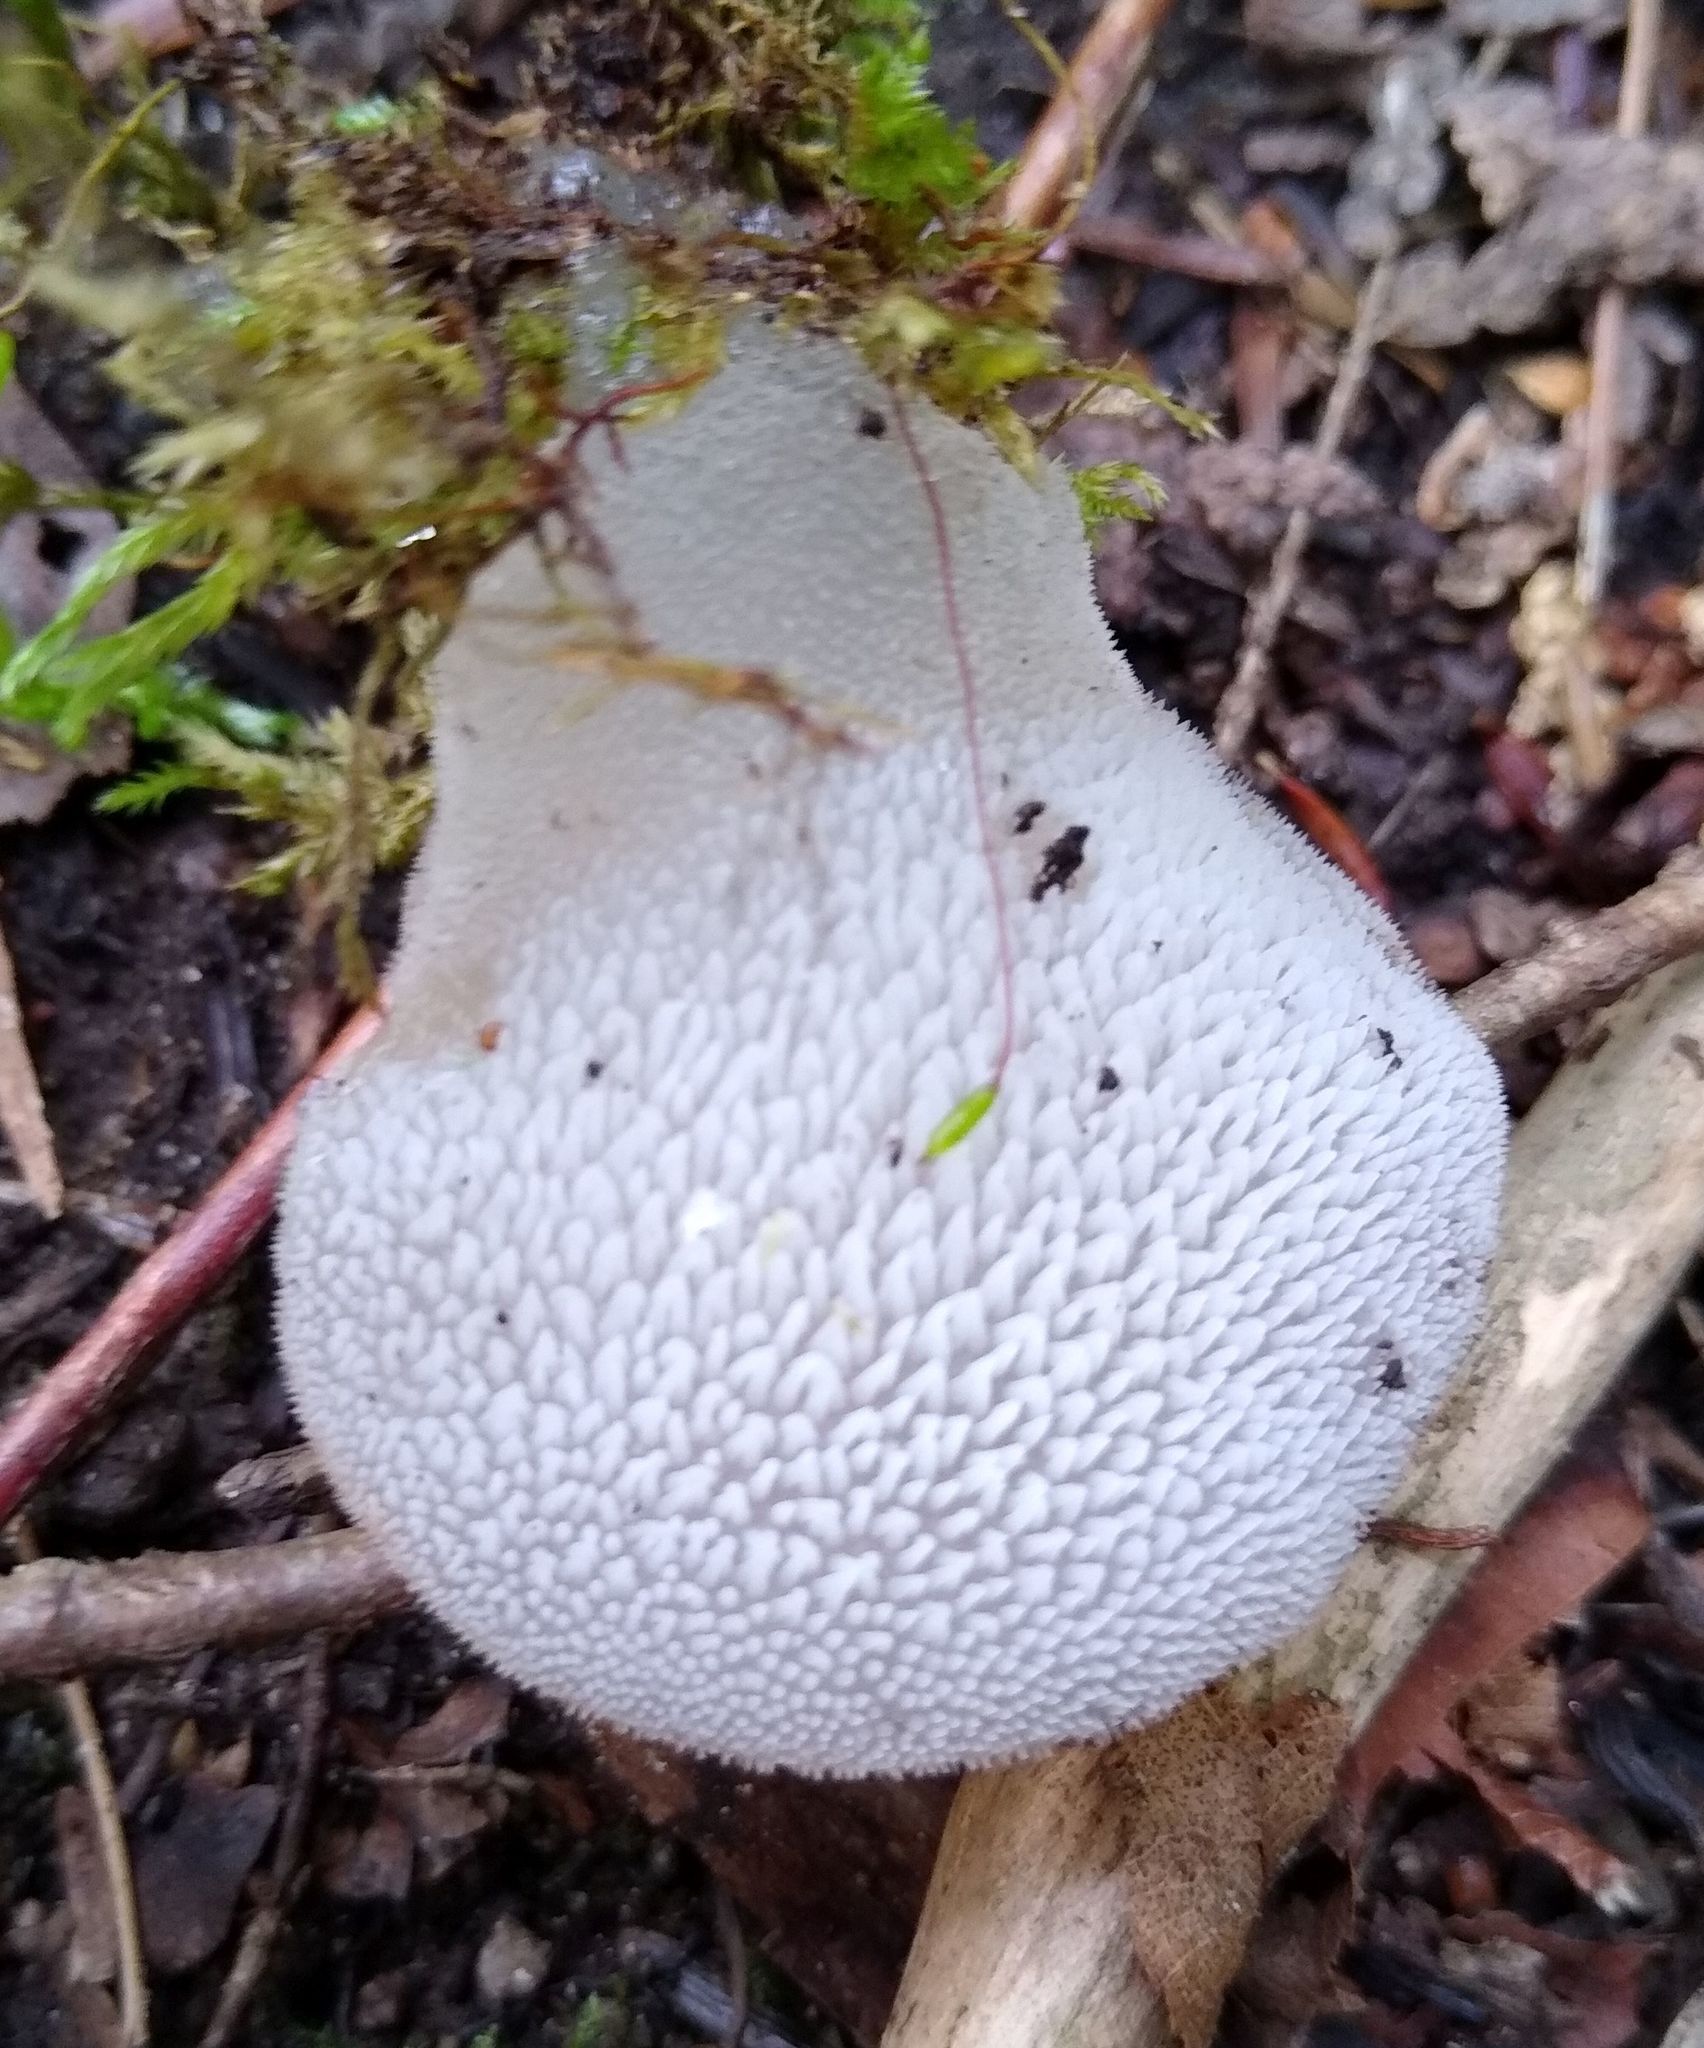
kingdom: Fungi
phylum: Basidiomycota
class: Agaricomycetes
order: Auriculariales
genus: Pseudohydnum
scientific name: Pseudohydnum gelatinosum
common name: Jelly tongue
